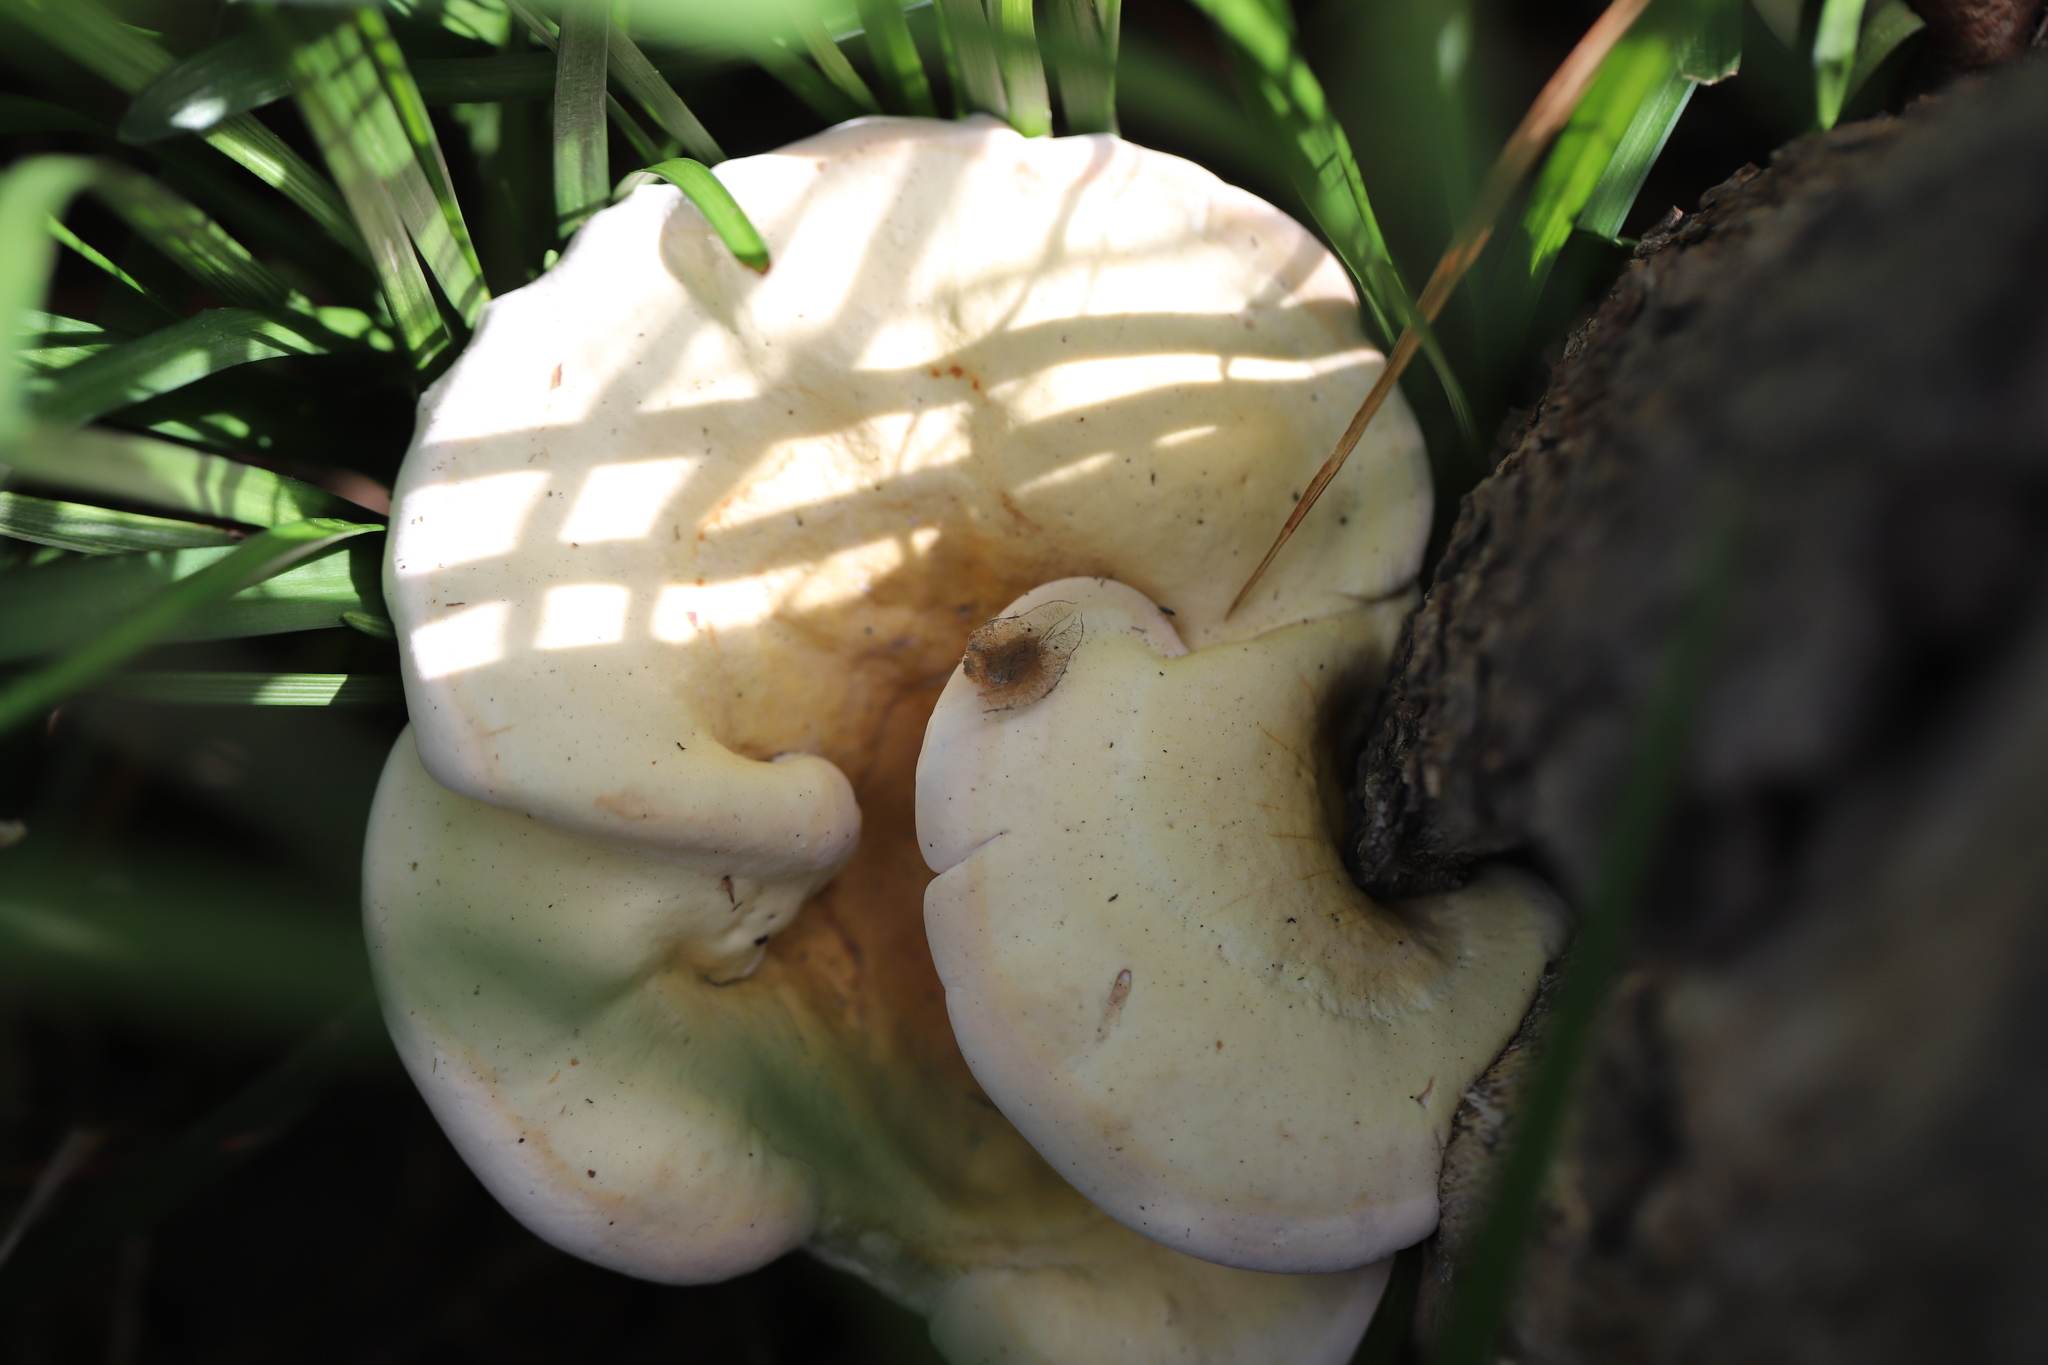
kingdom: Fungi
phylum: Basidiomycota
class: Agaricomycetes
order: Polyporales
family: Polyporaceae
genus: Ganoderma
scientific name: Ganoderma curtisii
